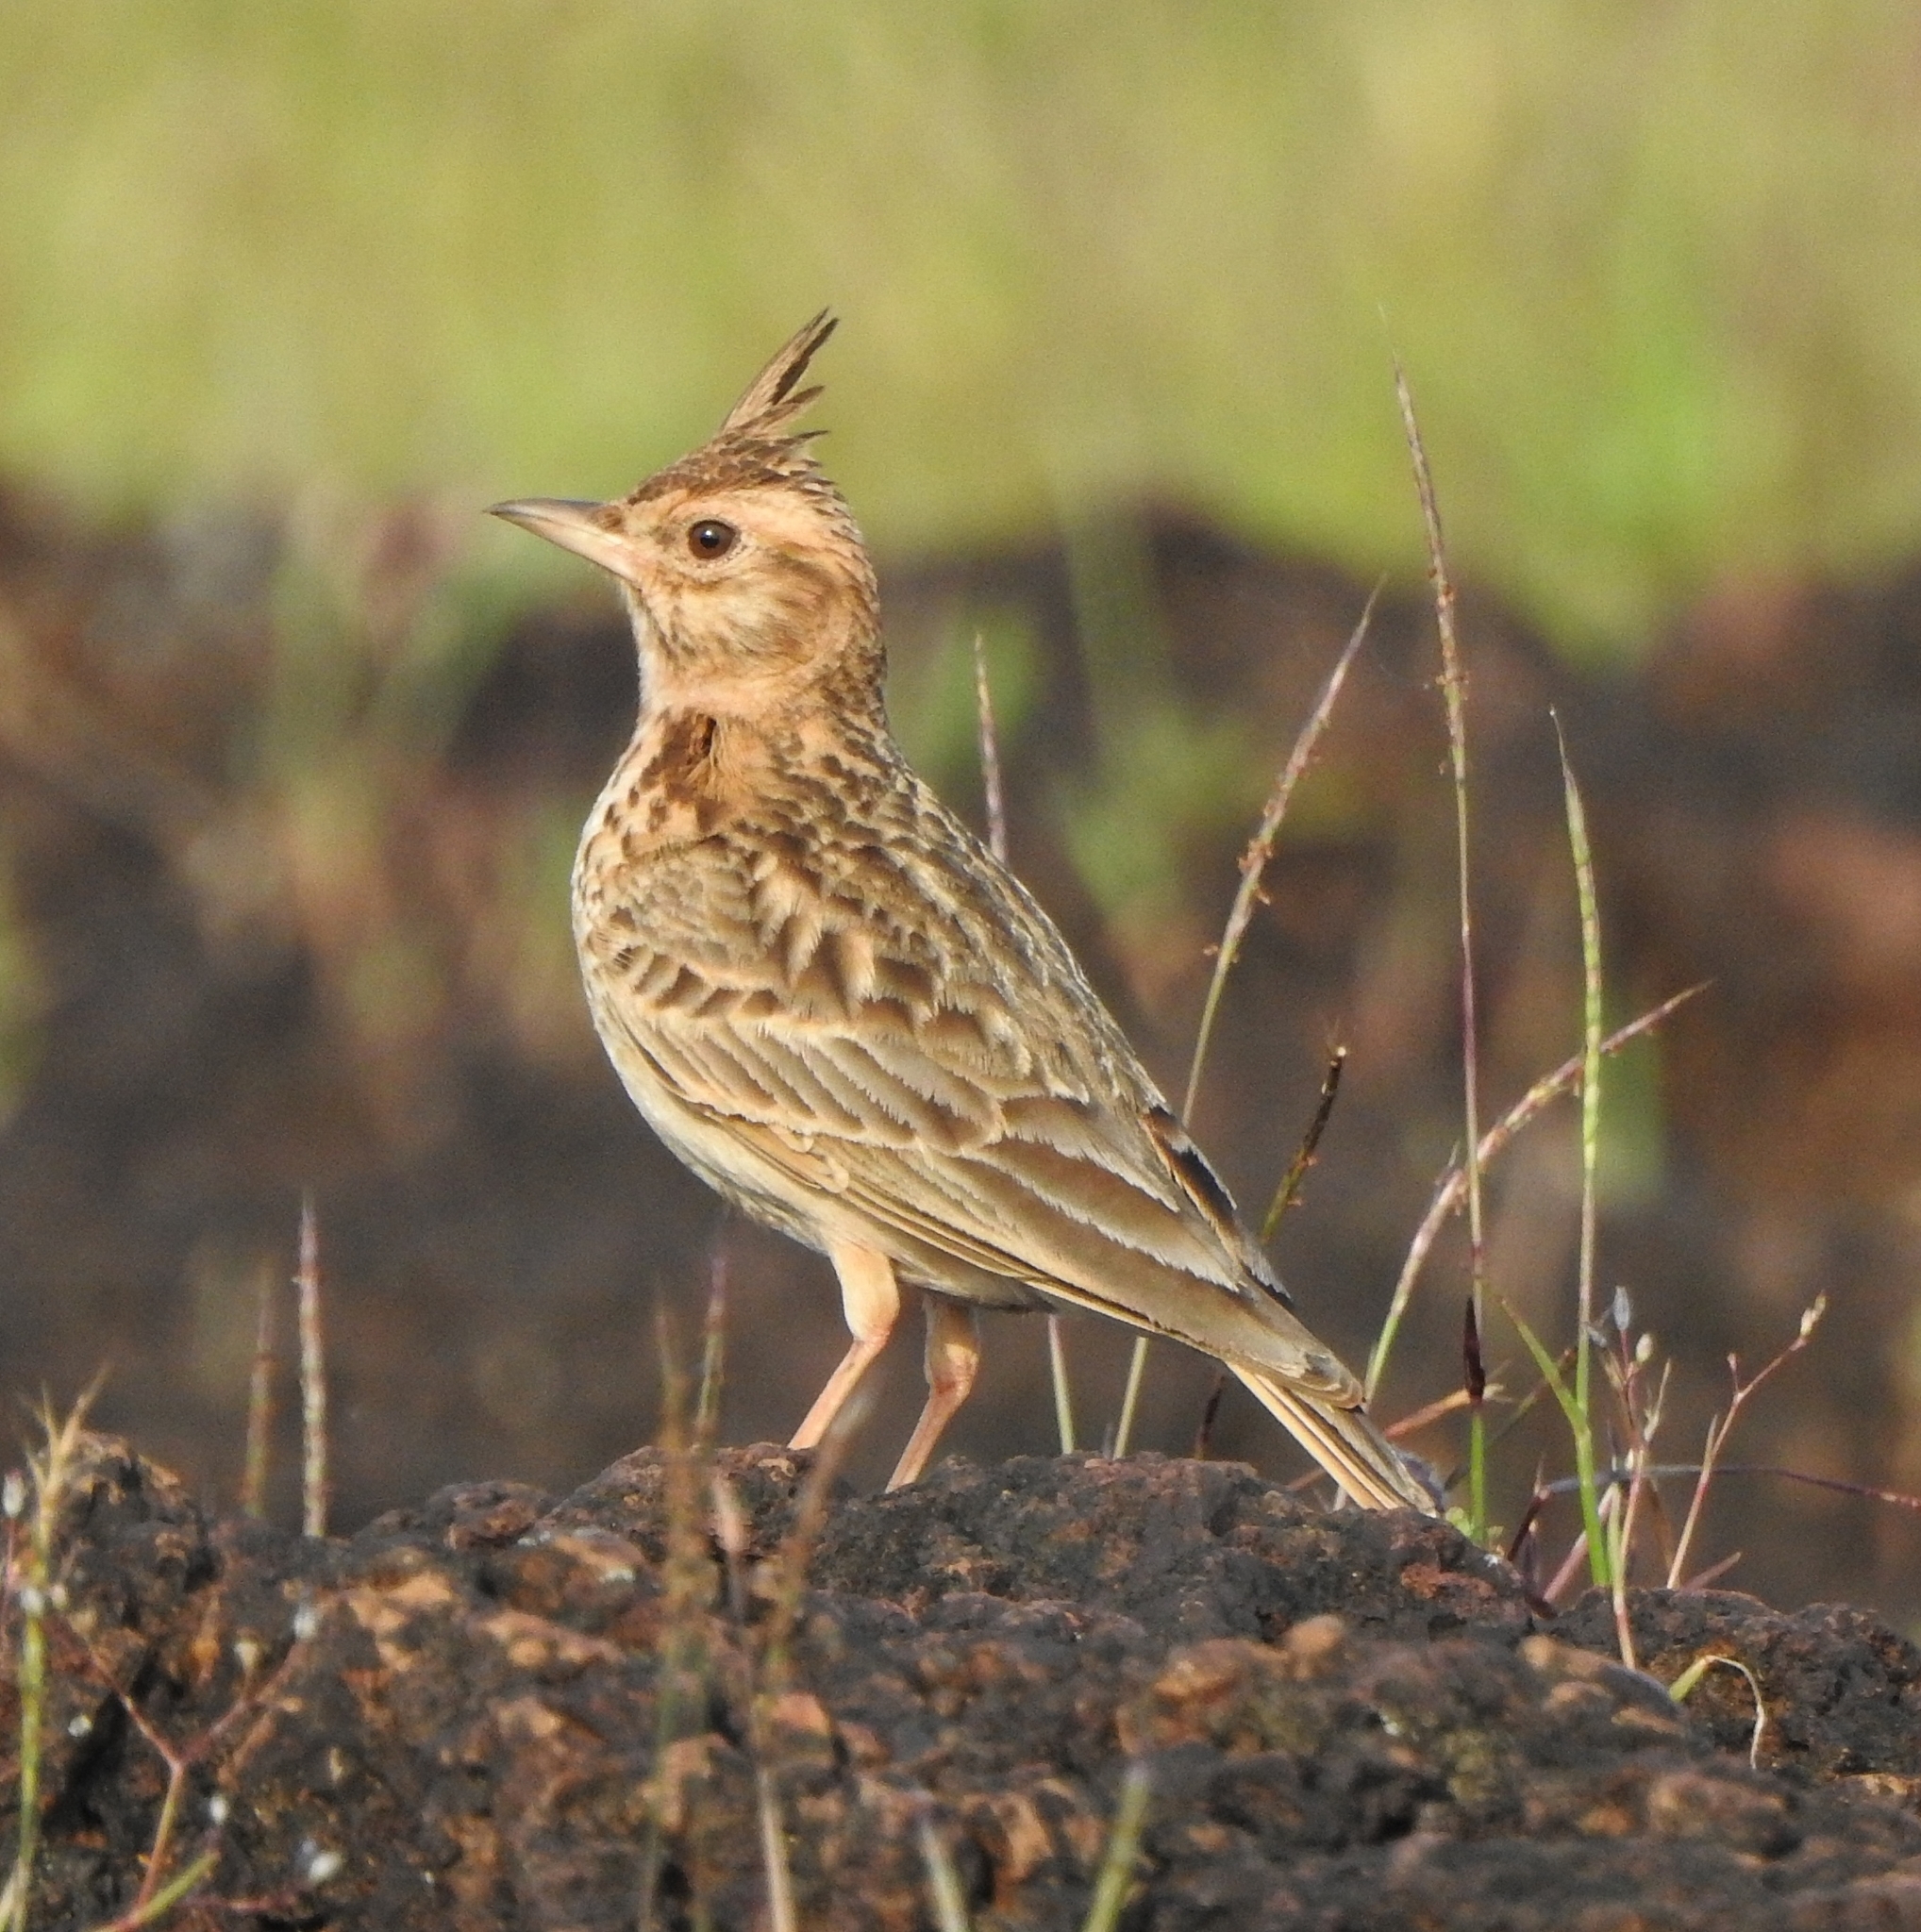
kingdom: Animalia
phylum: Chordata
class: Aves
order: Passeriformes
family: Alaudidae
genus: Galerida
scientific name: Galerida malabarica
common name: Malabar lark
